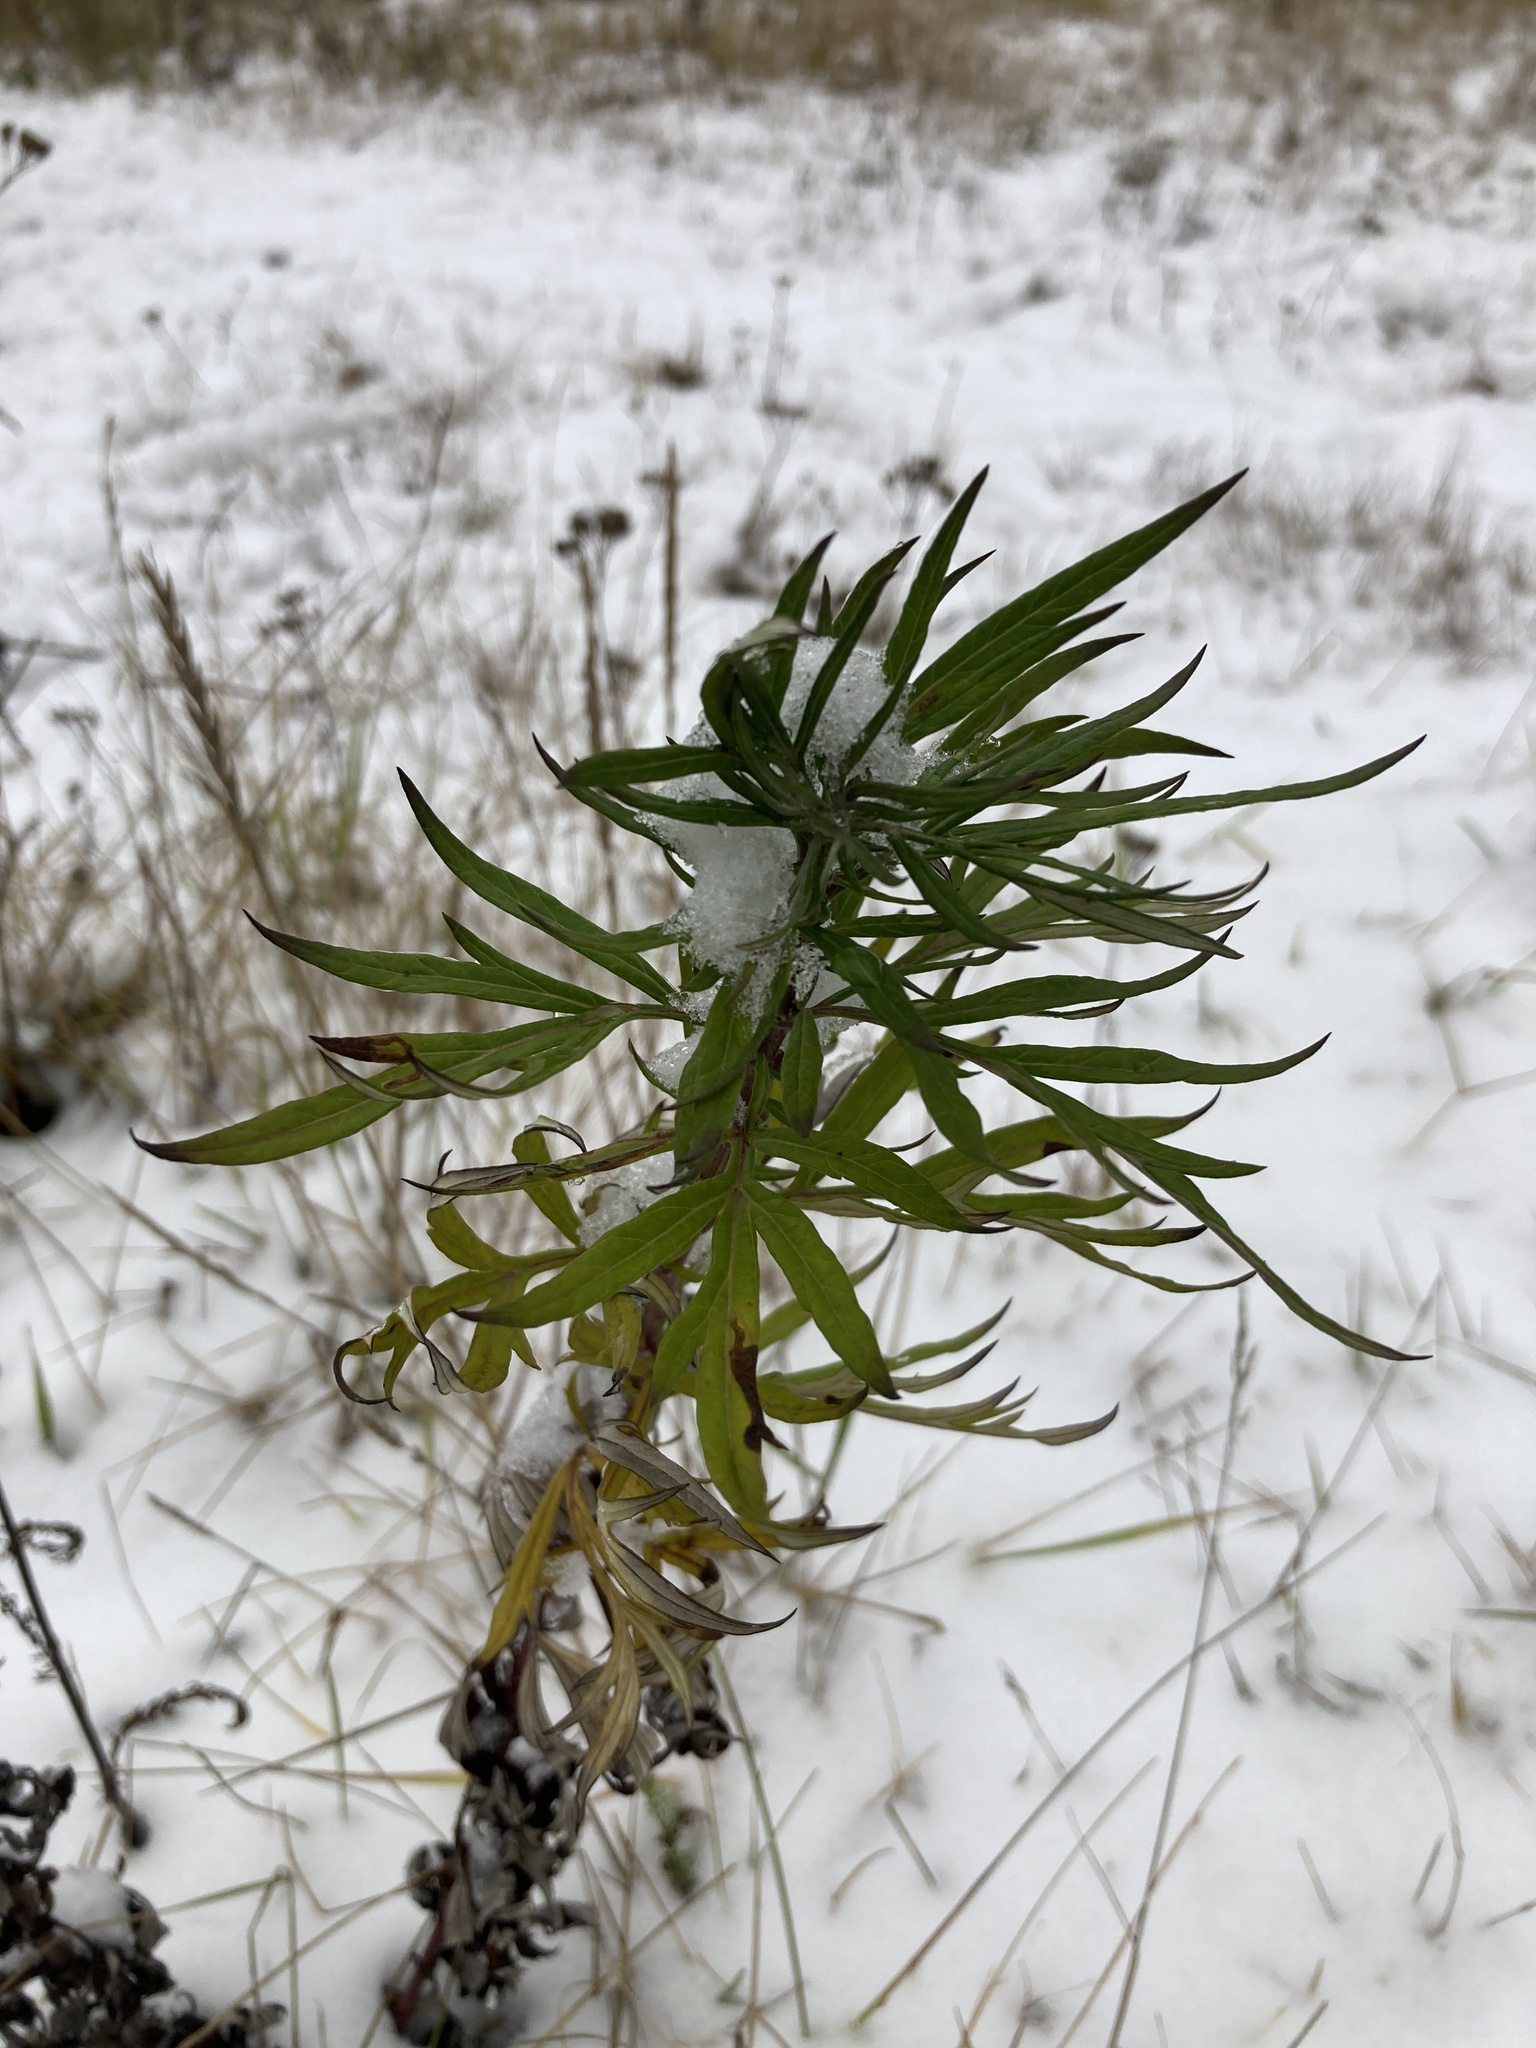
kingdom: Plantae
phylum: Tracheophyta
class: Magnoliopsida
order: Asterales
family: Asteraceae
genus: Artemisia
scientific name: Artemisia vulgaris
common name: Mugwort
